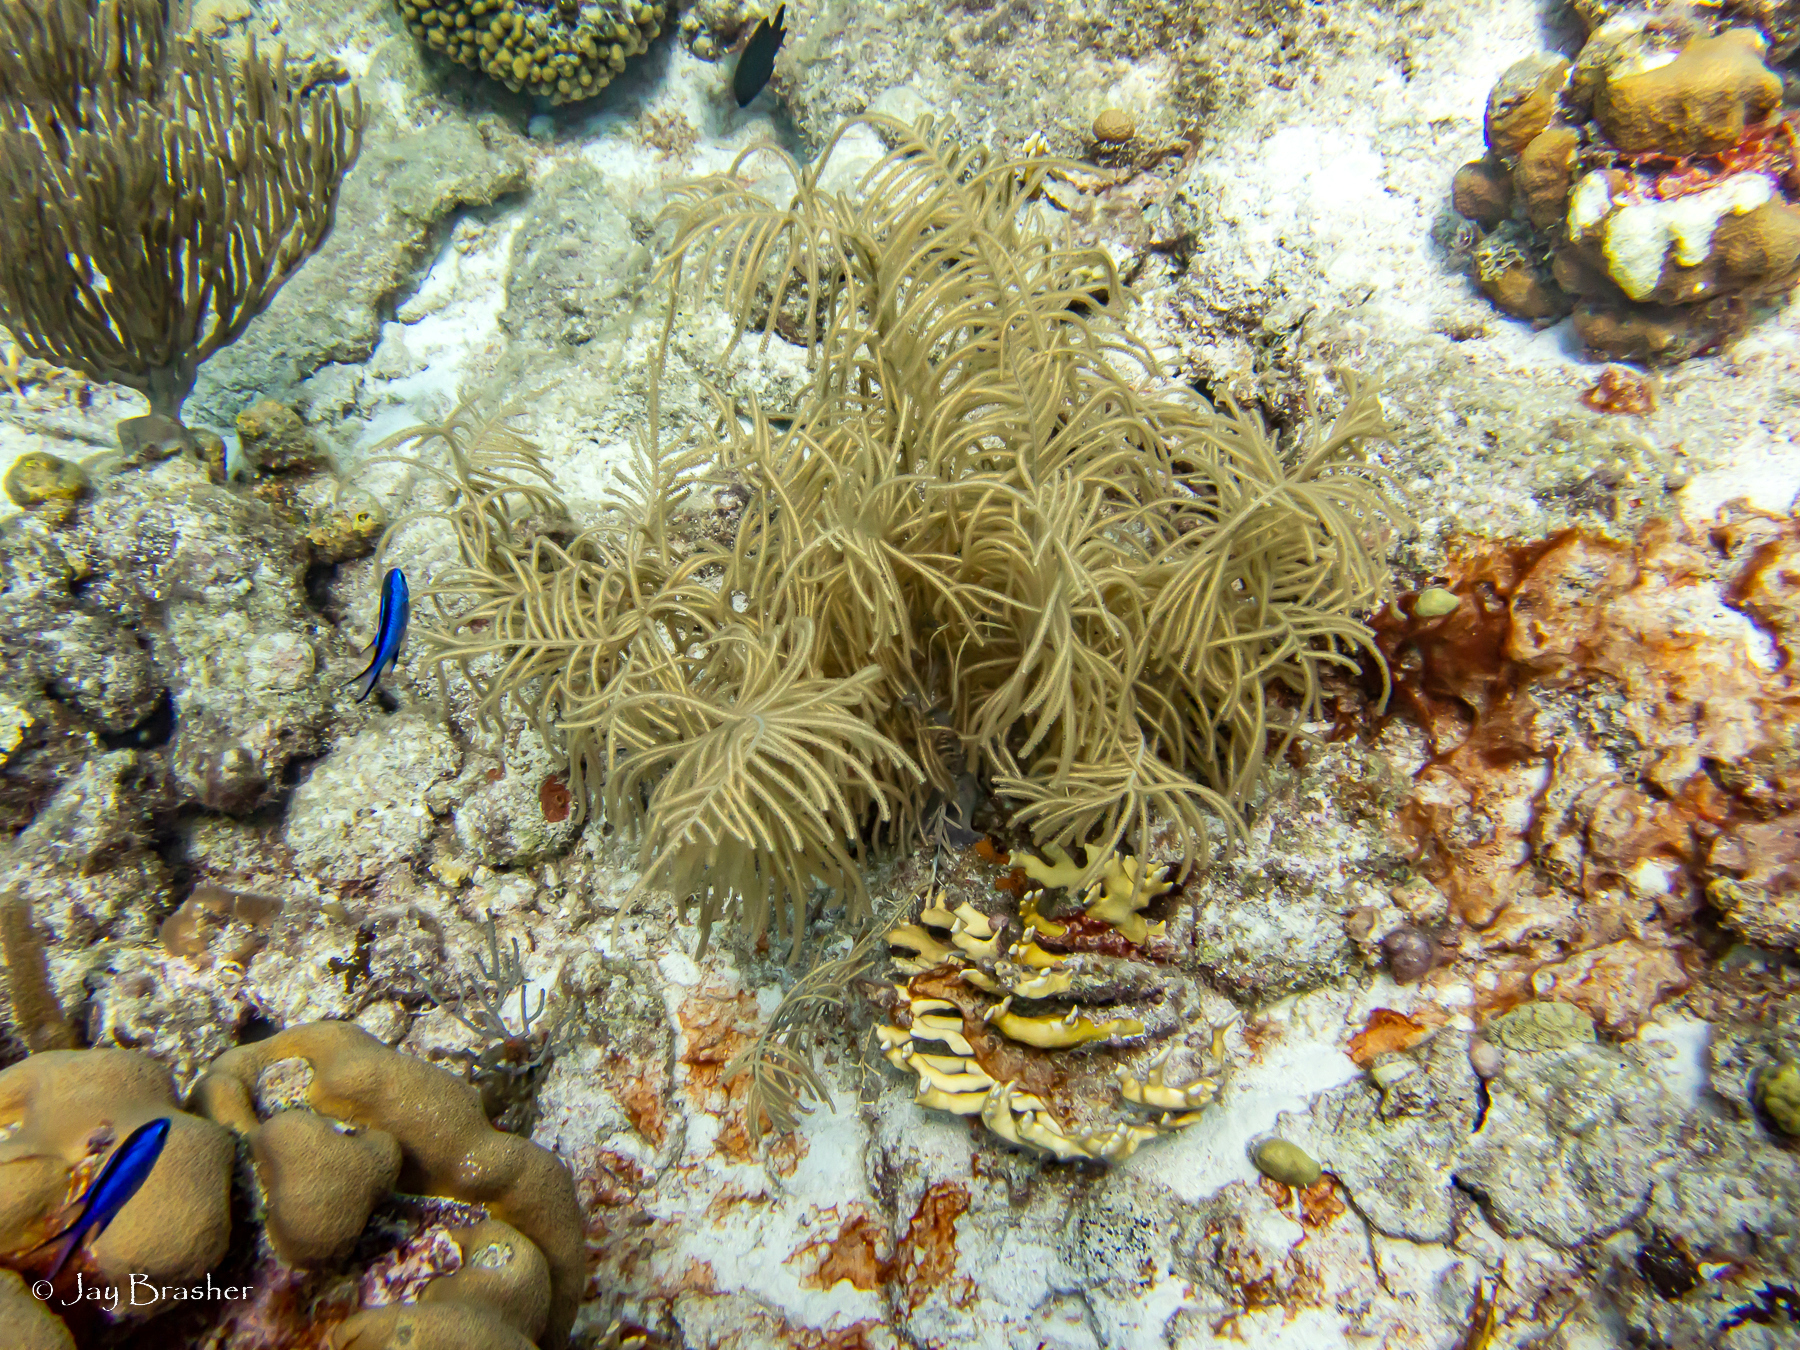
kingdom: Animalia
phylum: Chordata
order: Perciformes
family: Pomacentridae
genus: Chromis
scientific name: Chromis cyanea
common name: Blue chromis
